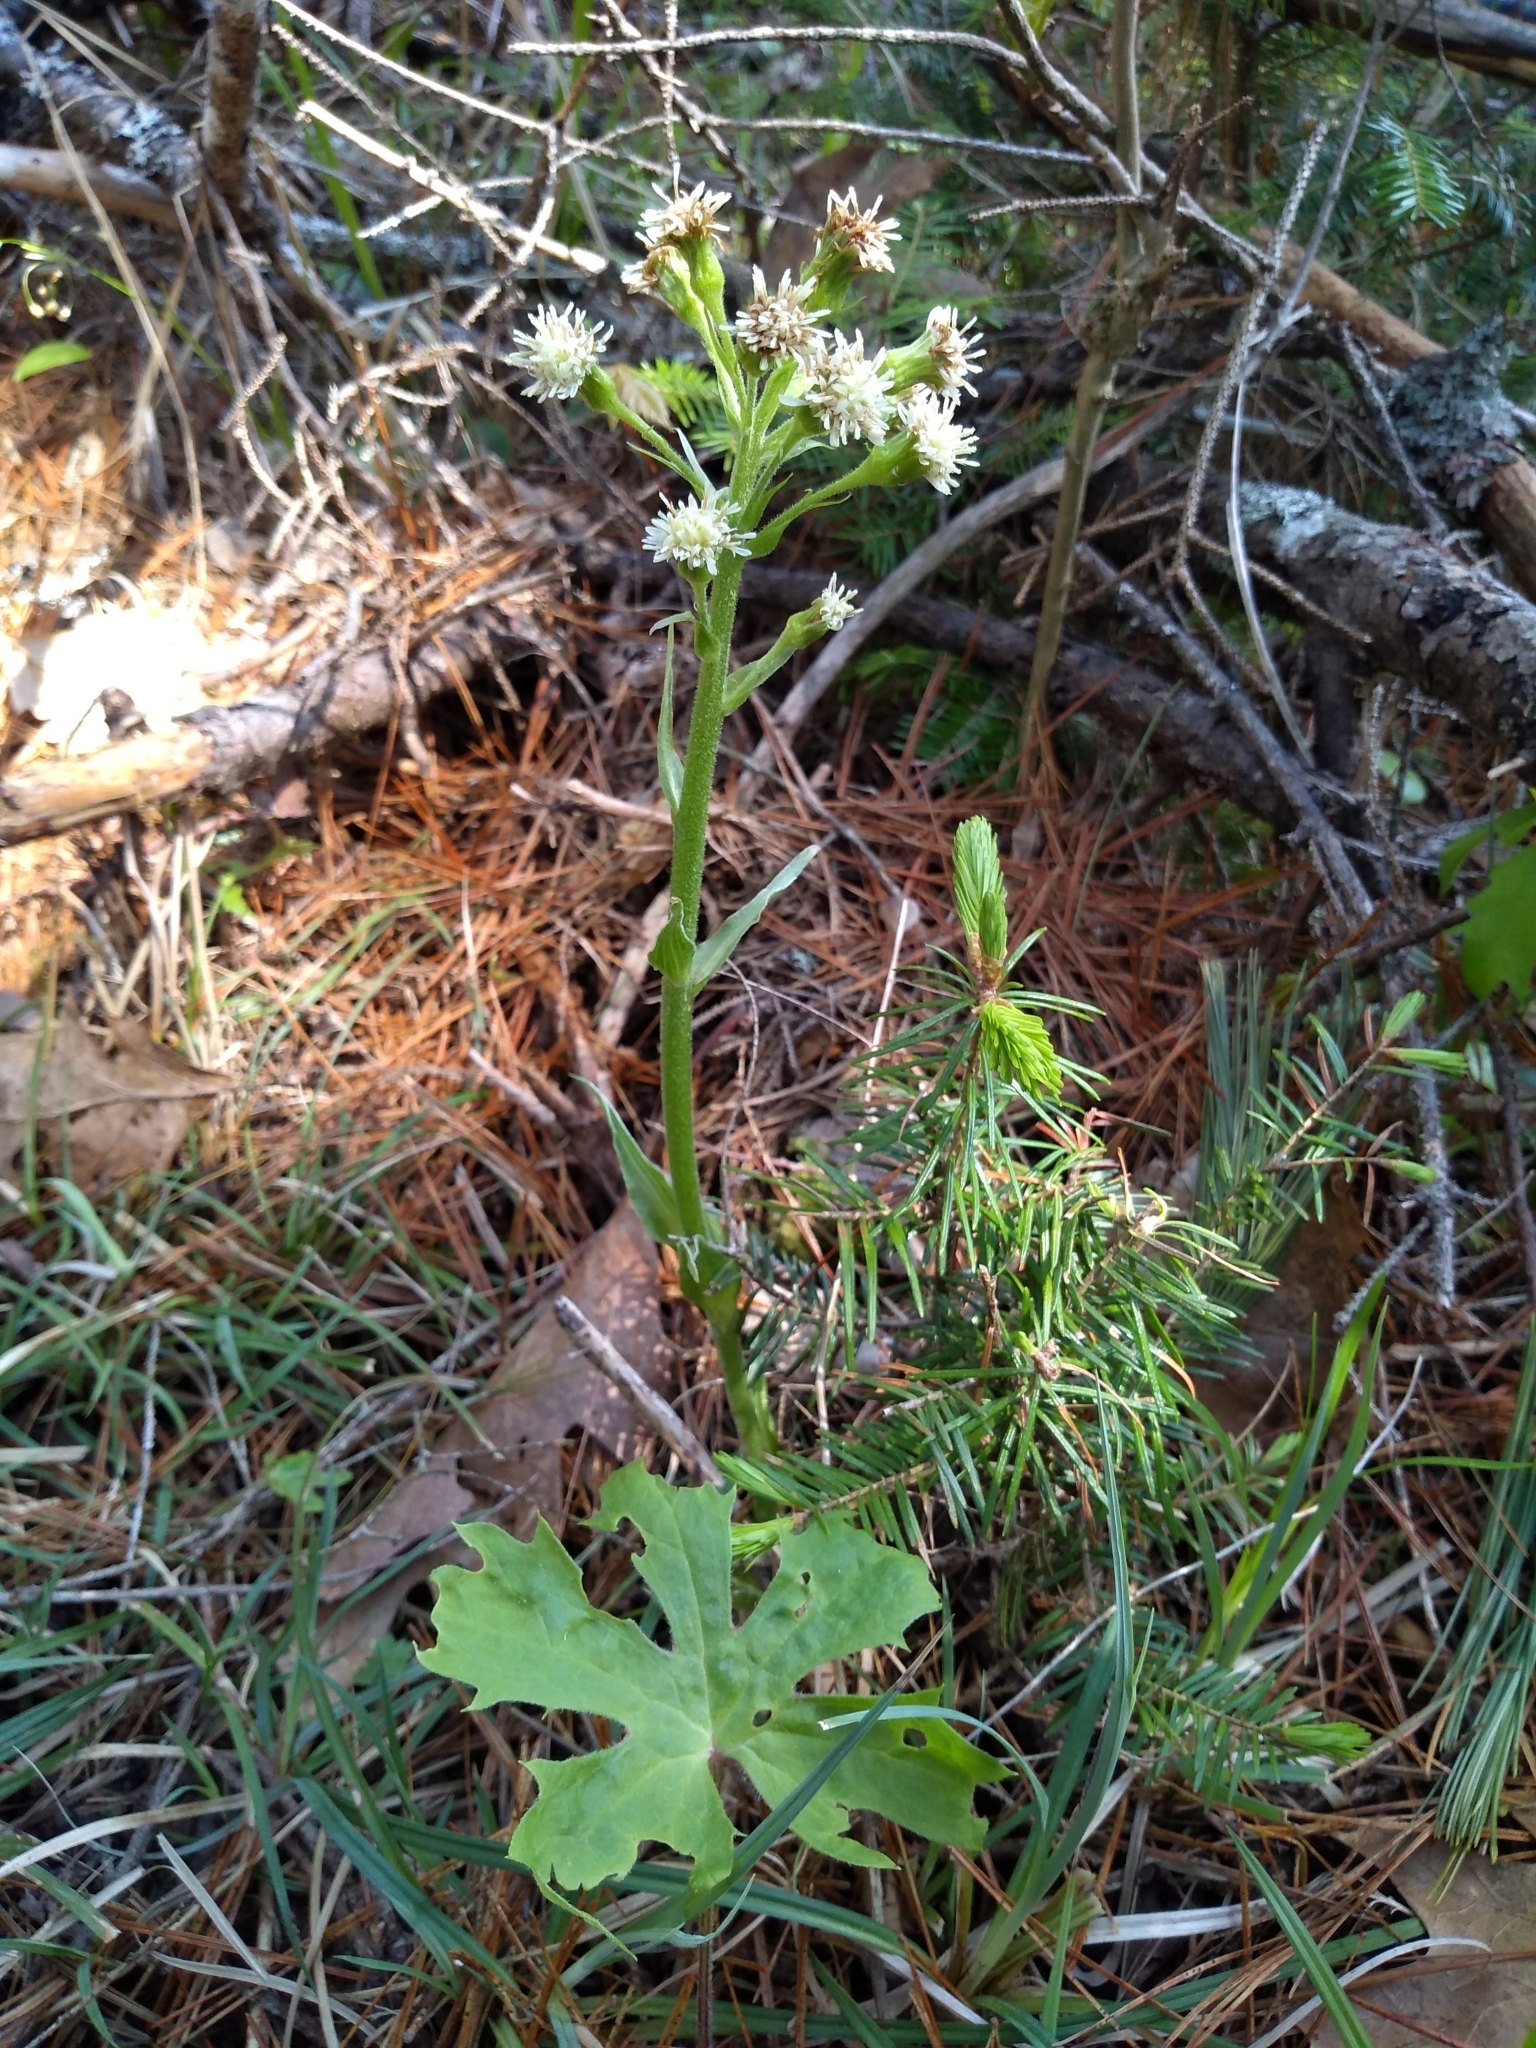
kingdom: Plantae
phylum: Tracheophyta
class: Magnoliopsida
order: Asterales
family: Asteraceae
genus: Petasites
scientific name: Petasites frigidus
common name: Arctic butterbur
